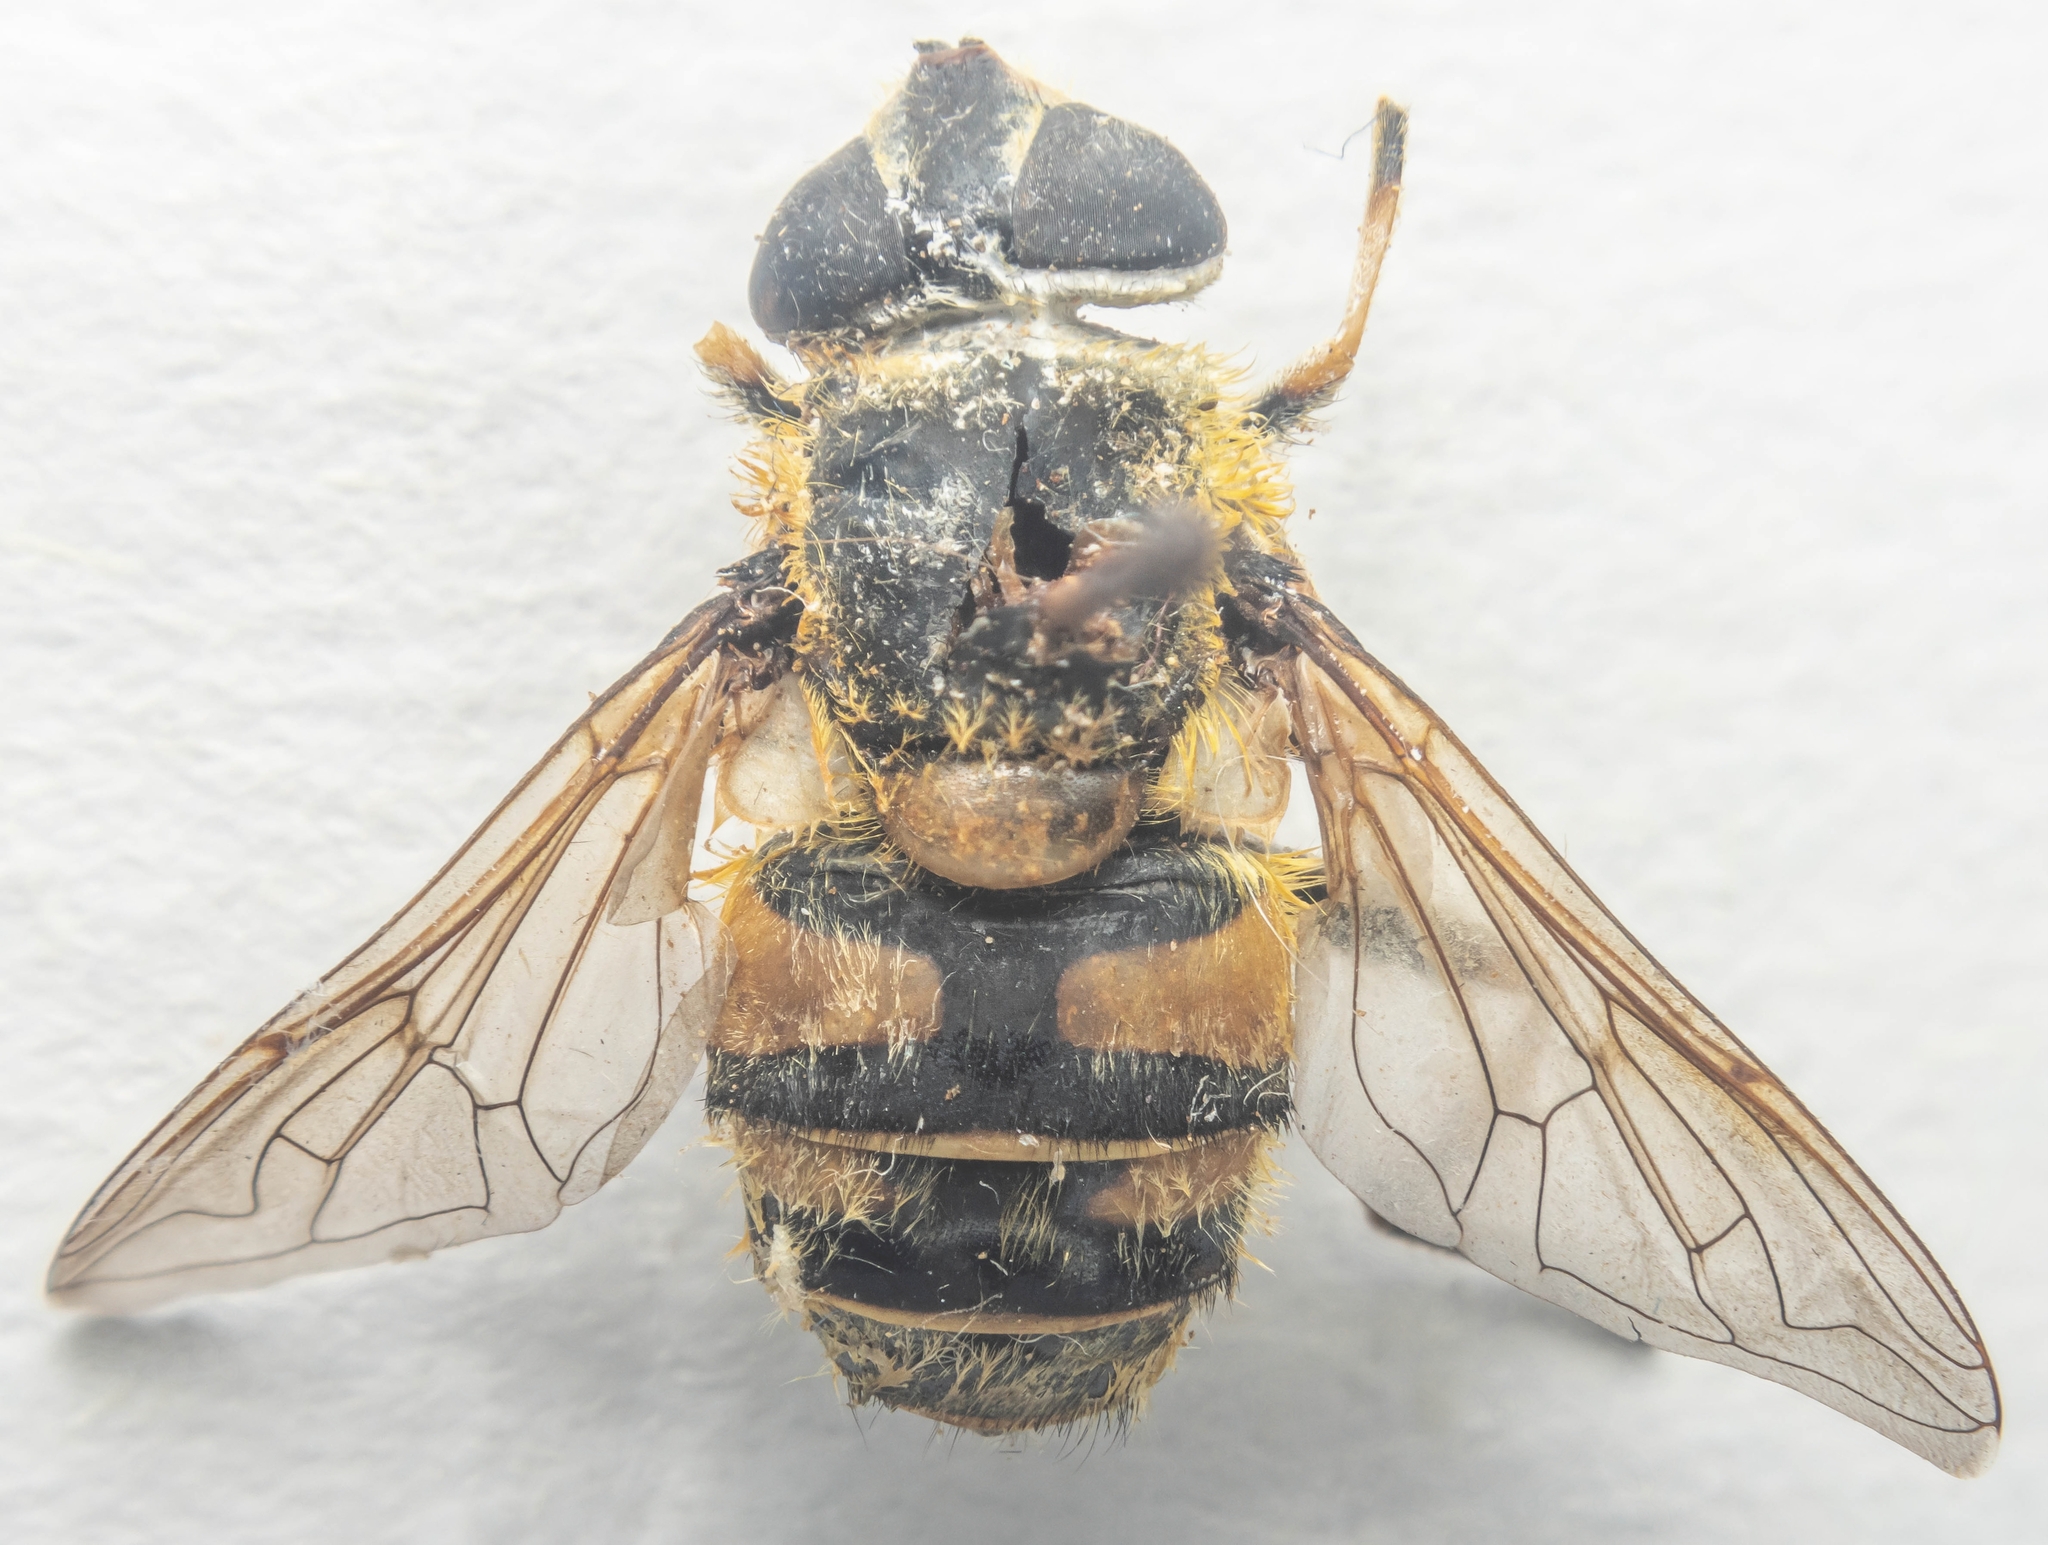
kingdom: Animalia
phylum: Arthropoda
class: Insecta
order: Diptera
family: Syrphidae
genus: Myathropa
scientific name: Myathropa florea
